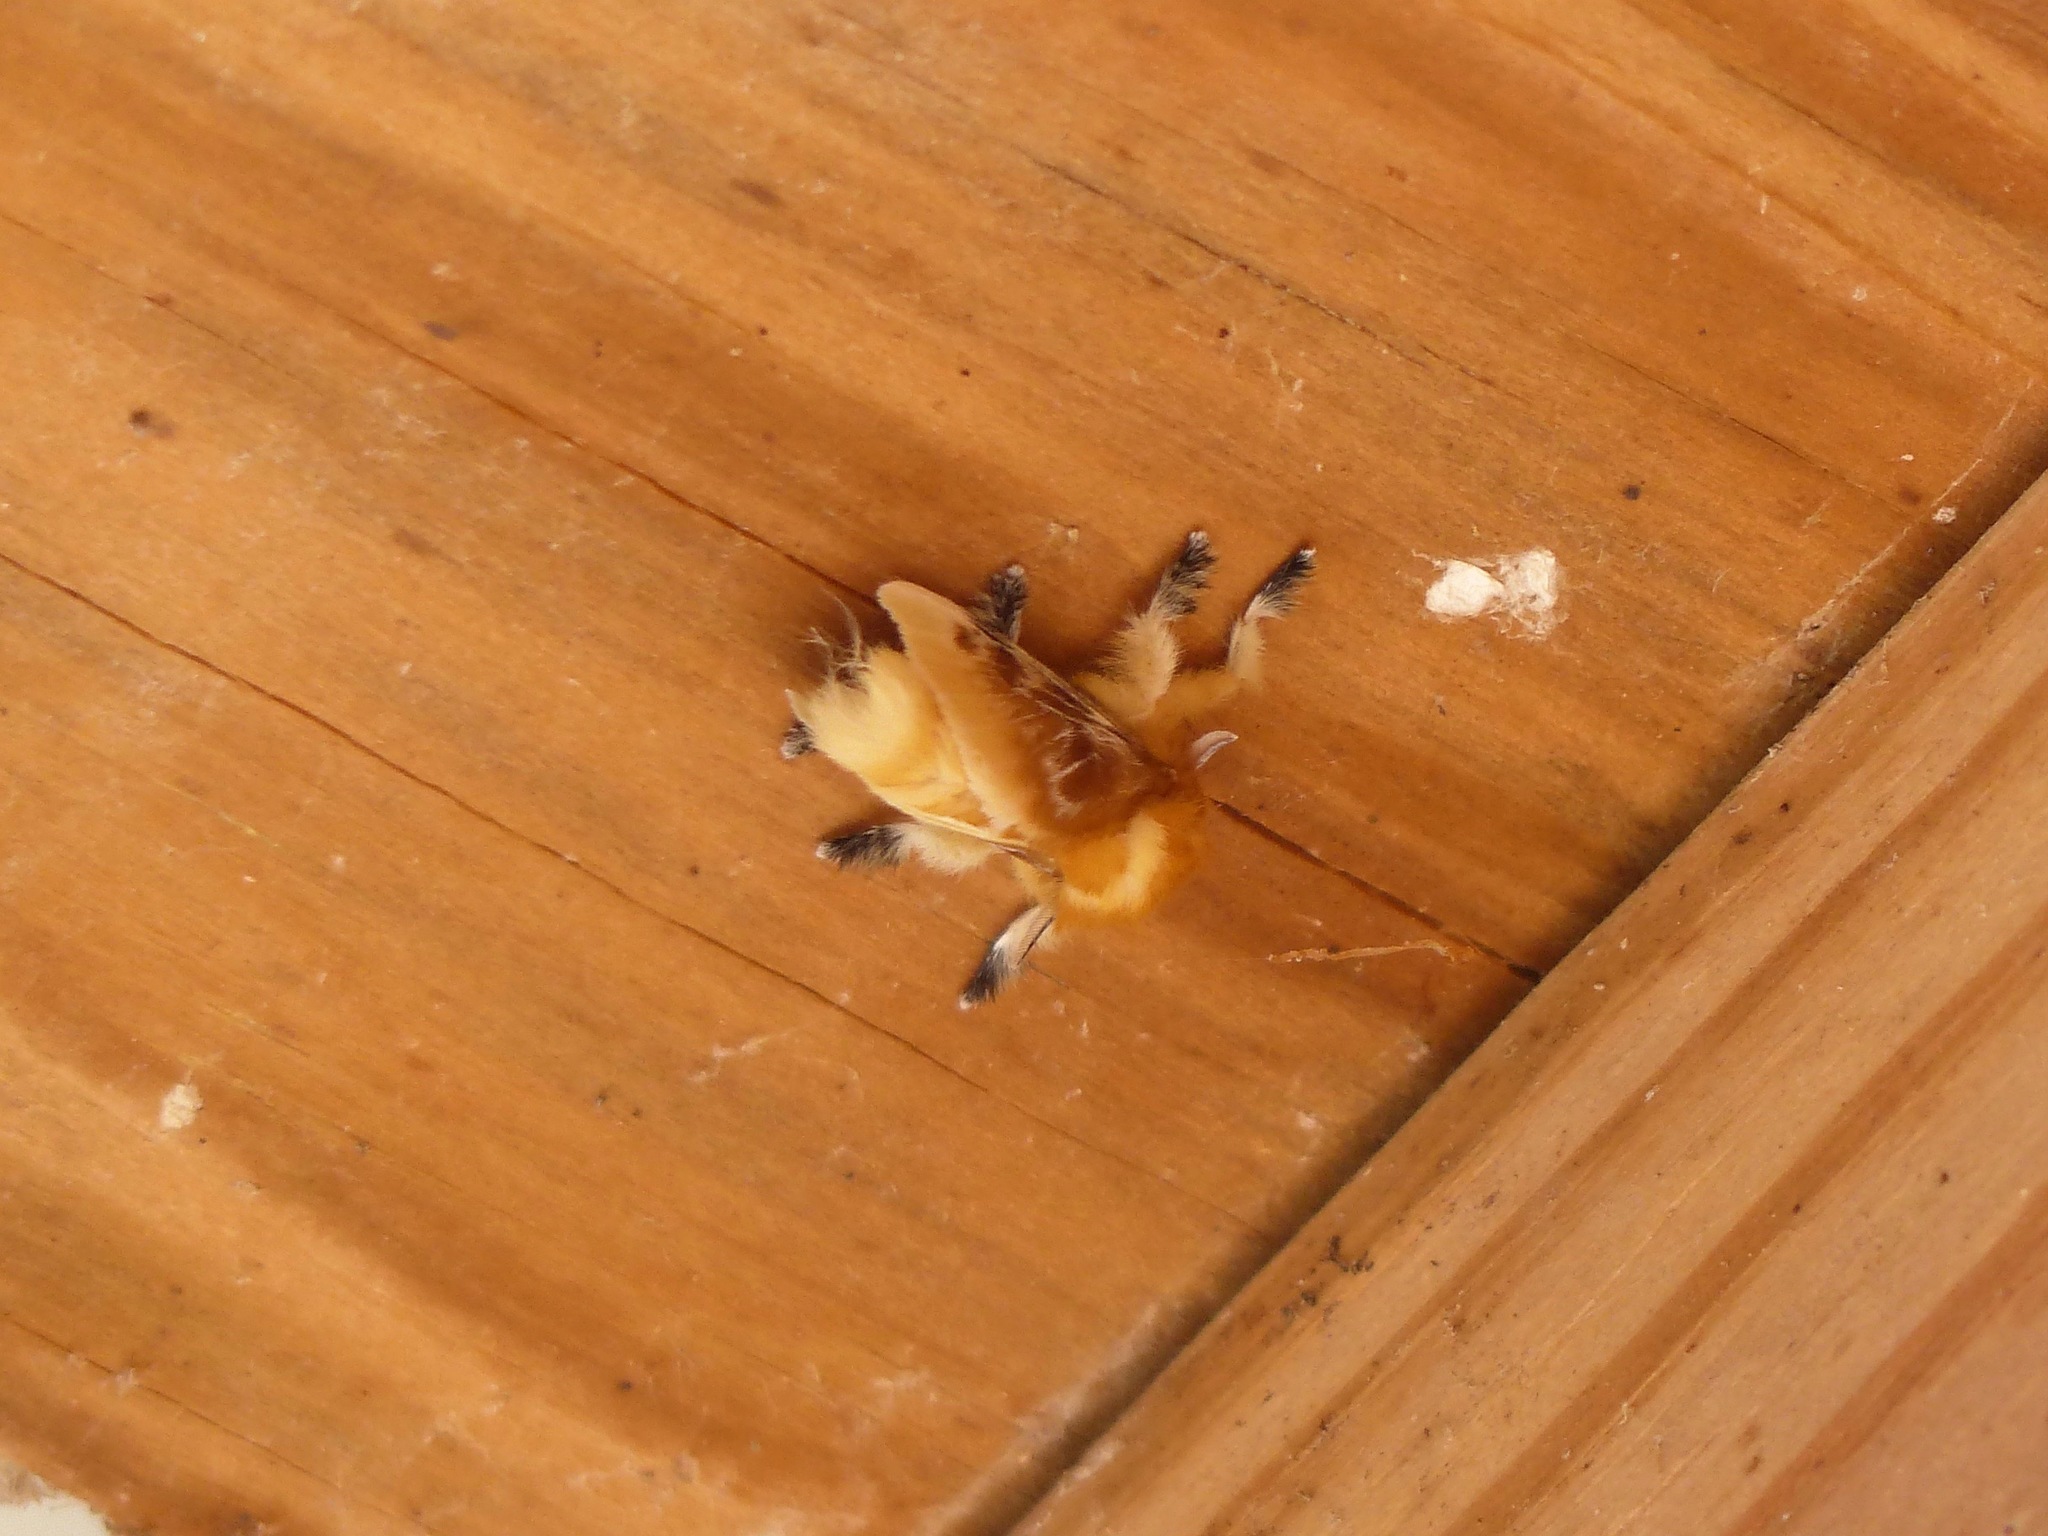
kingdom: Animalia
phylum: Arthropoda
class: Insecta
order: Lepidoptera
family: Megalopygidae
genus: Megalopyge
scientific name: Megalopyge opercularis
